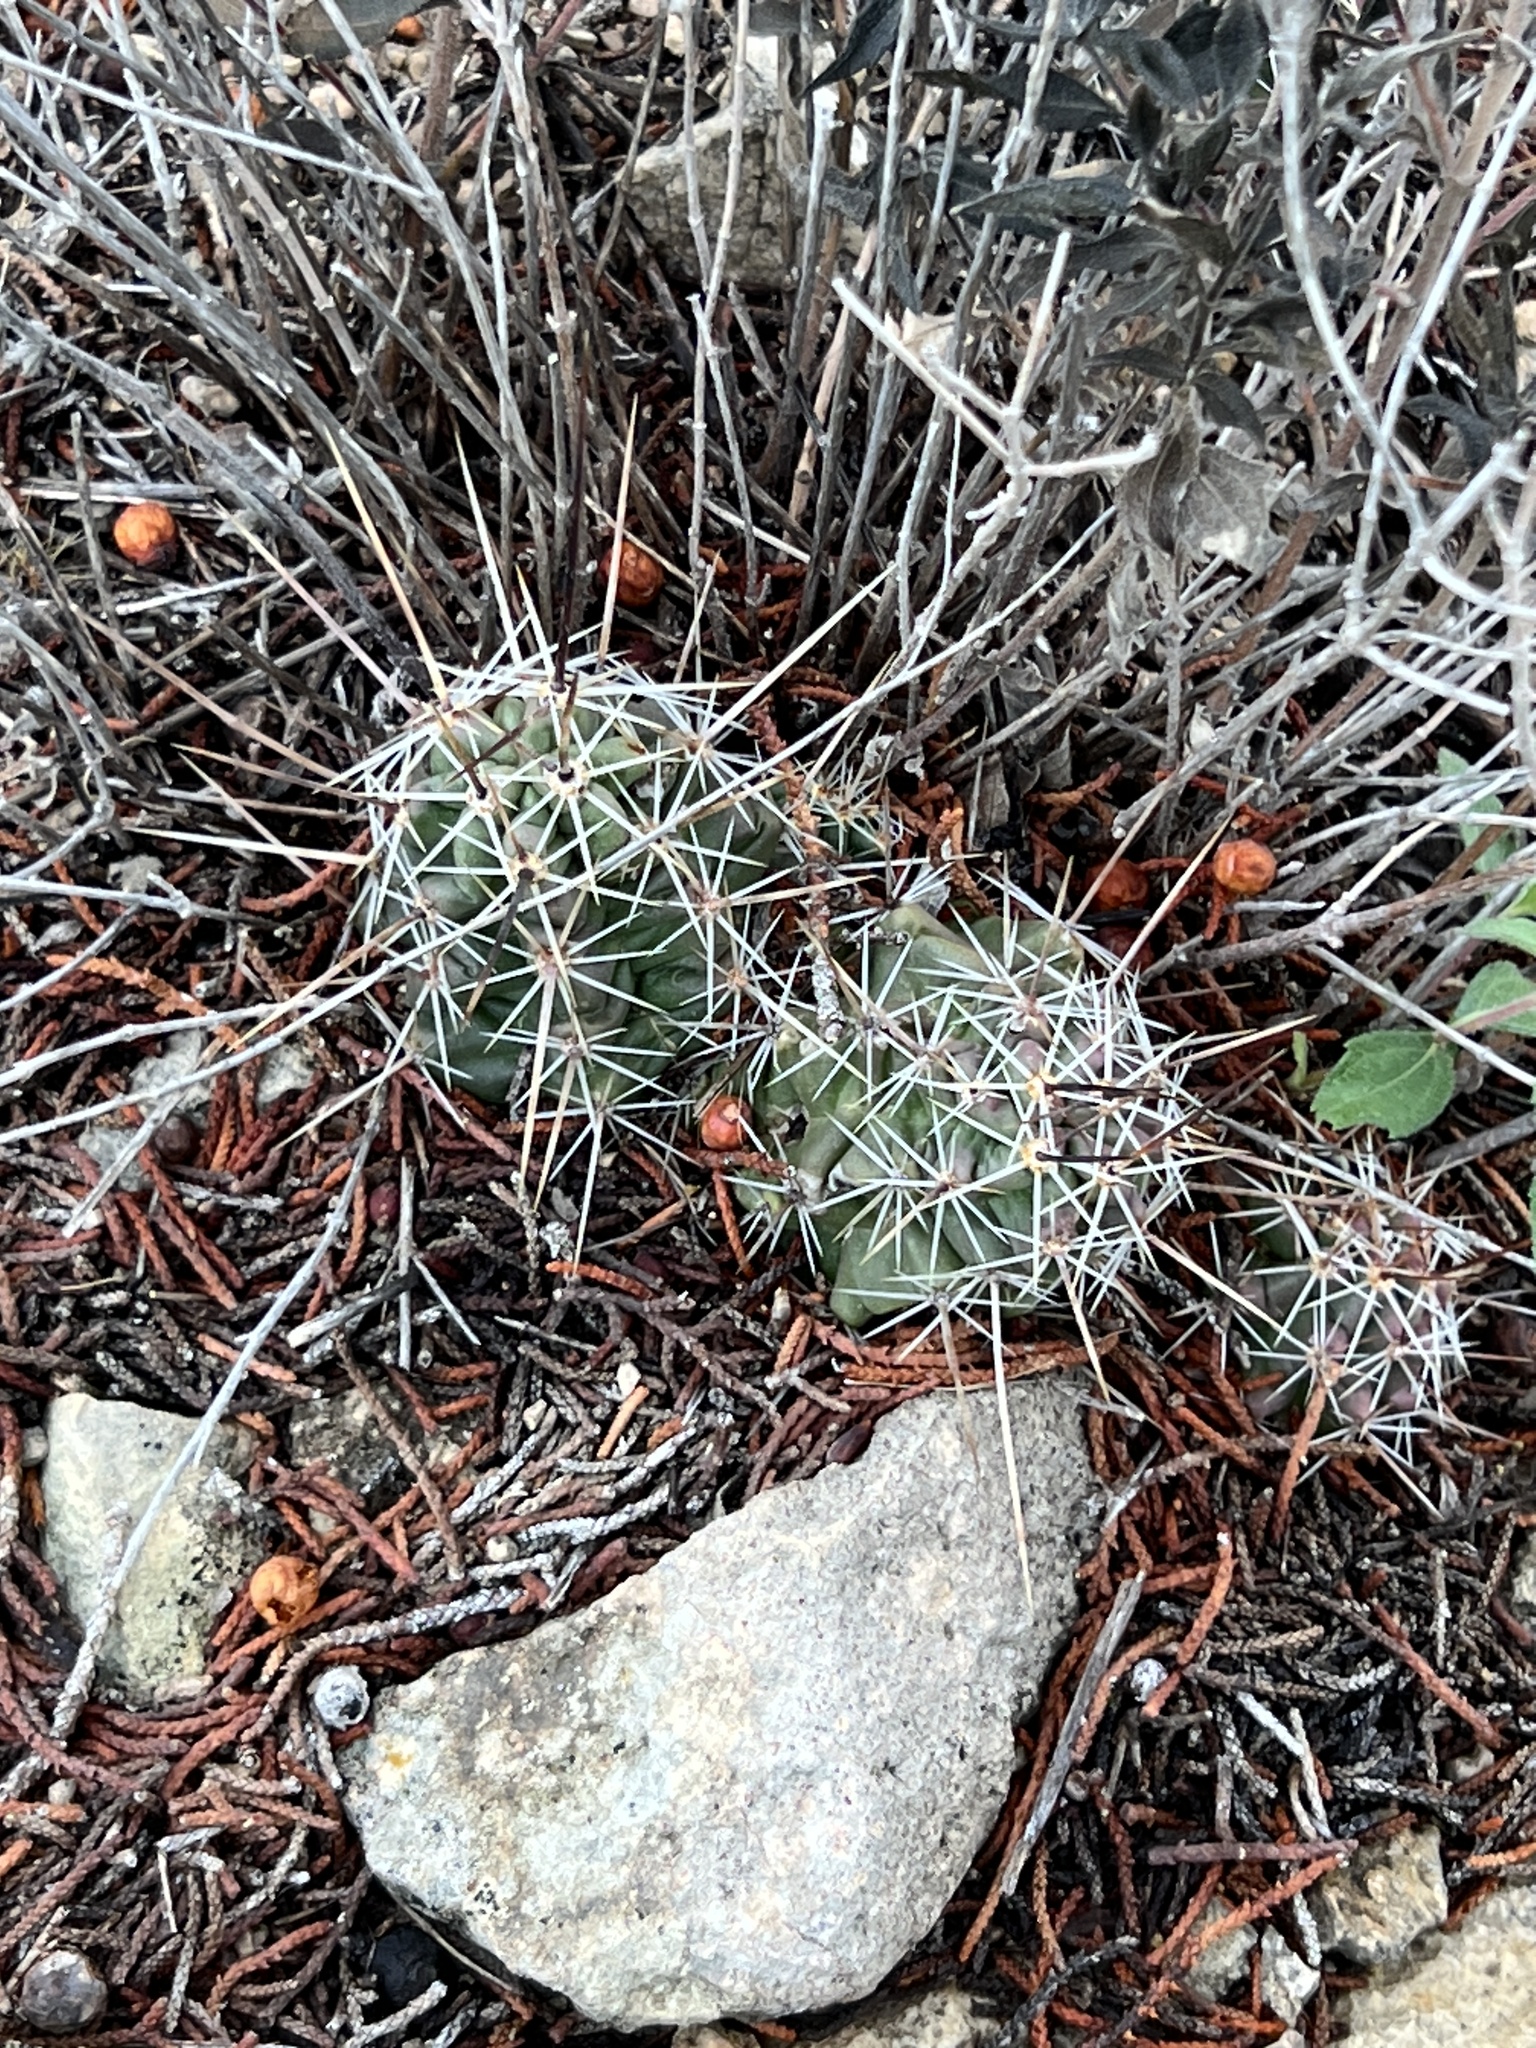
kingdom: Plantae
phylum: Tracheophyta
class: Magnoliopsida
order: Caryophyllales
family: Cactaceae
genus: Echinocereus
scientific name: Echinocereus enneacanthus
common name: Pitaya
